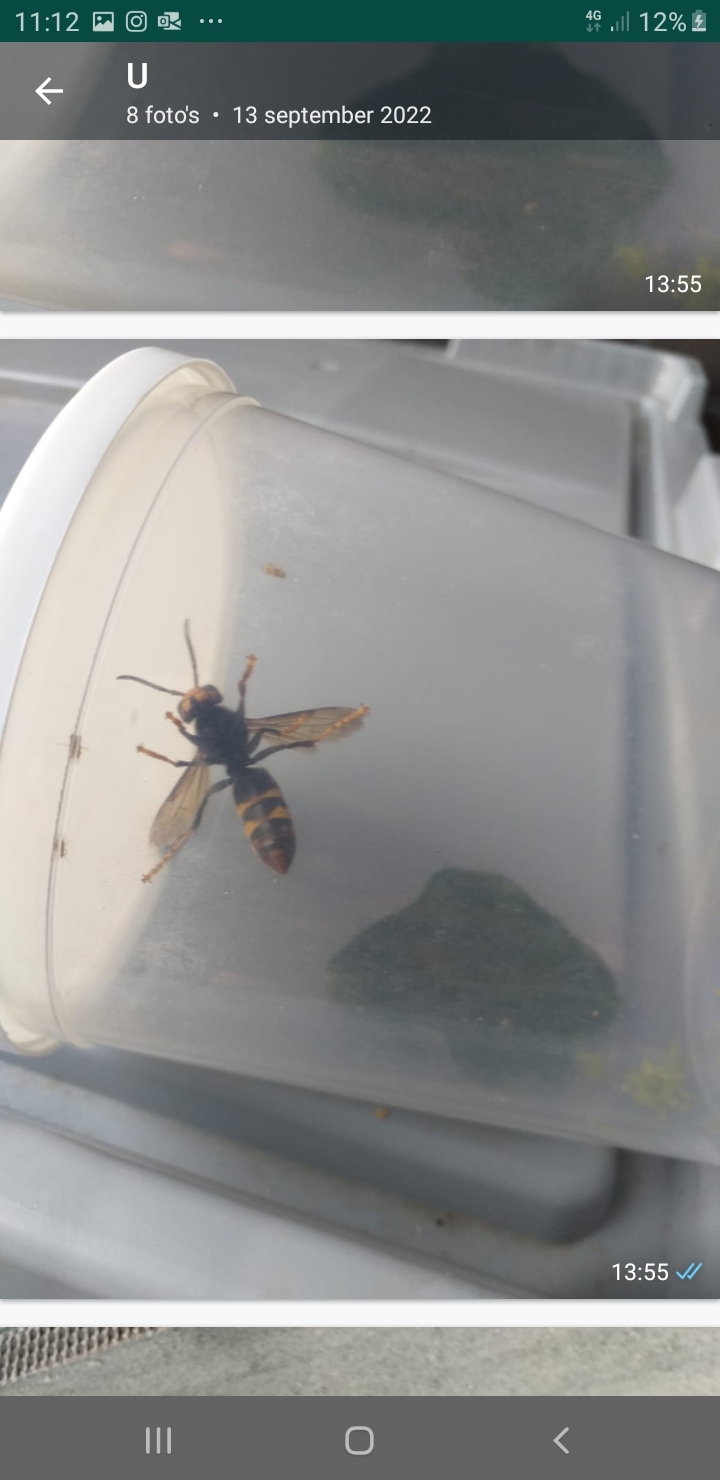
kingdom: Animalia
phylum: Arthropoda
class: Insecta
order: Hymenoptera
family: Vespidae
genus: Vespa
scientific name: Vespa velutina
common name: Asian hornet
